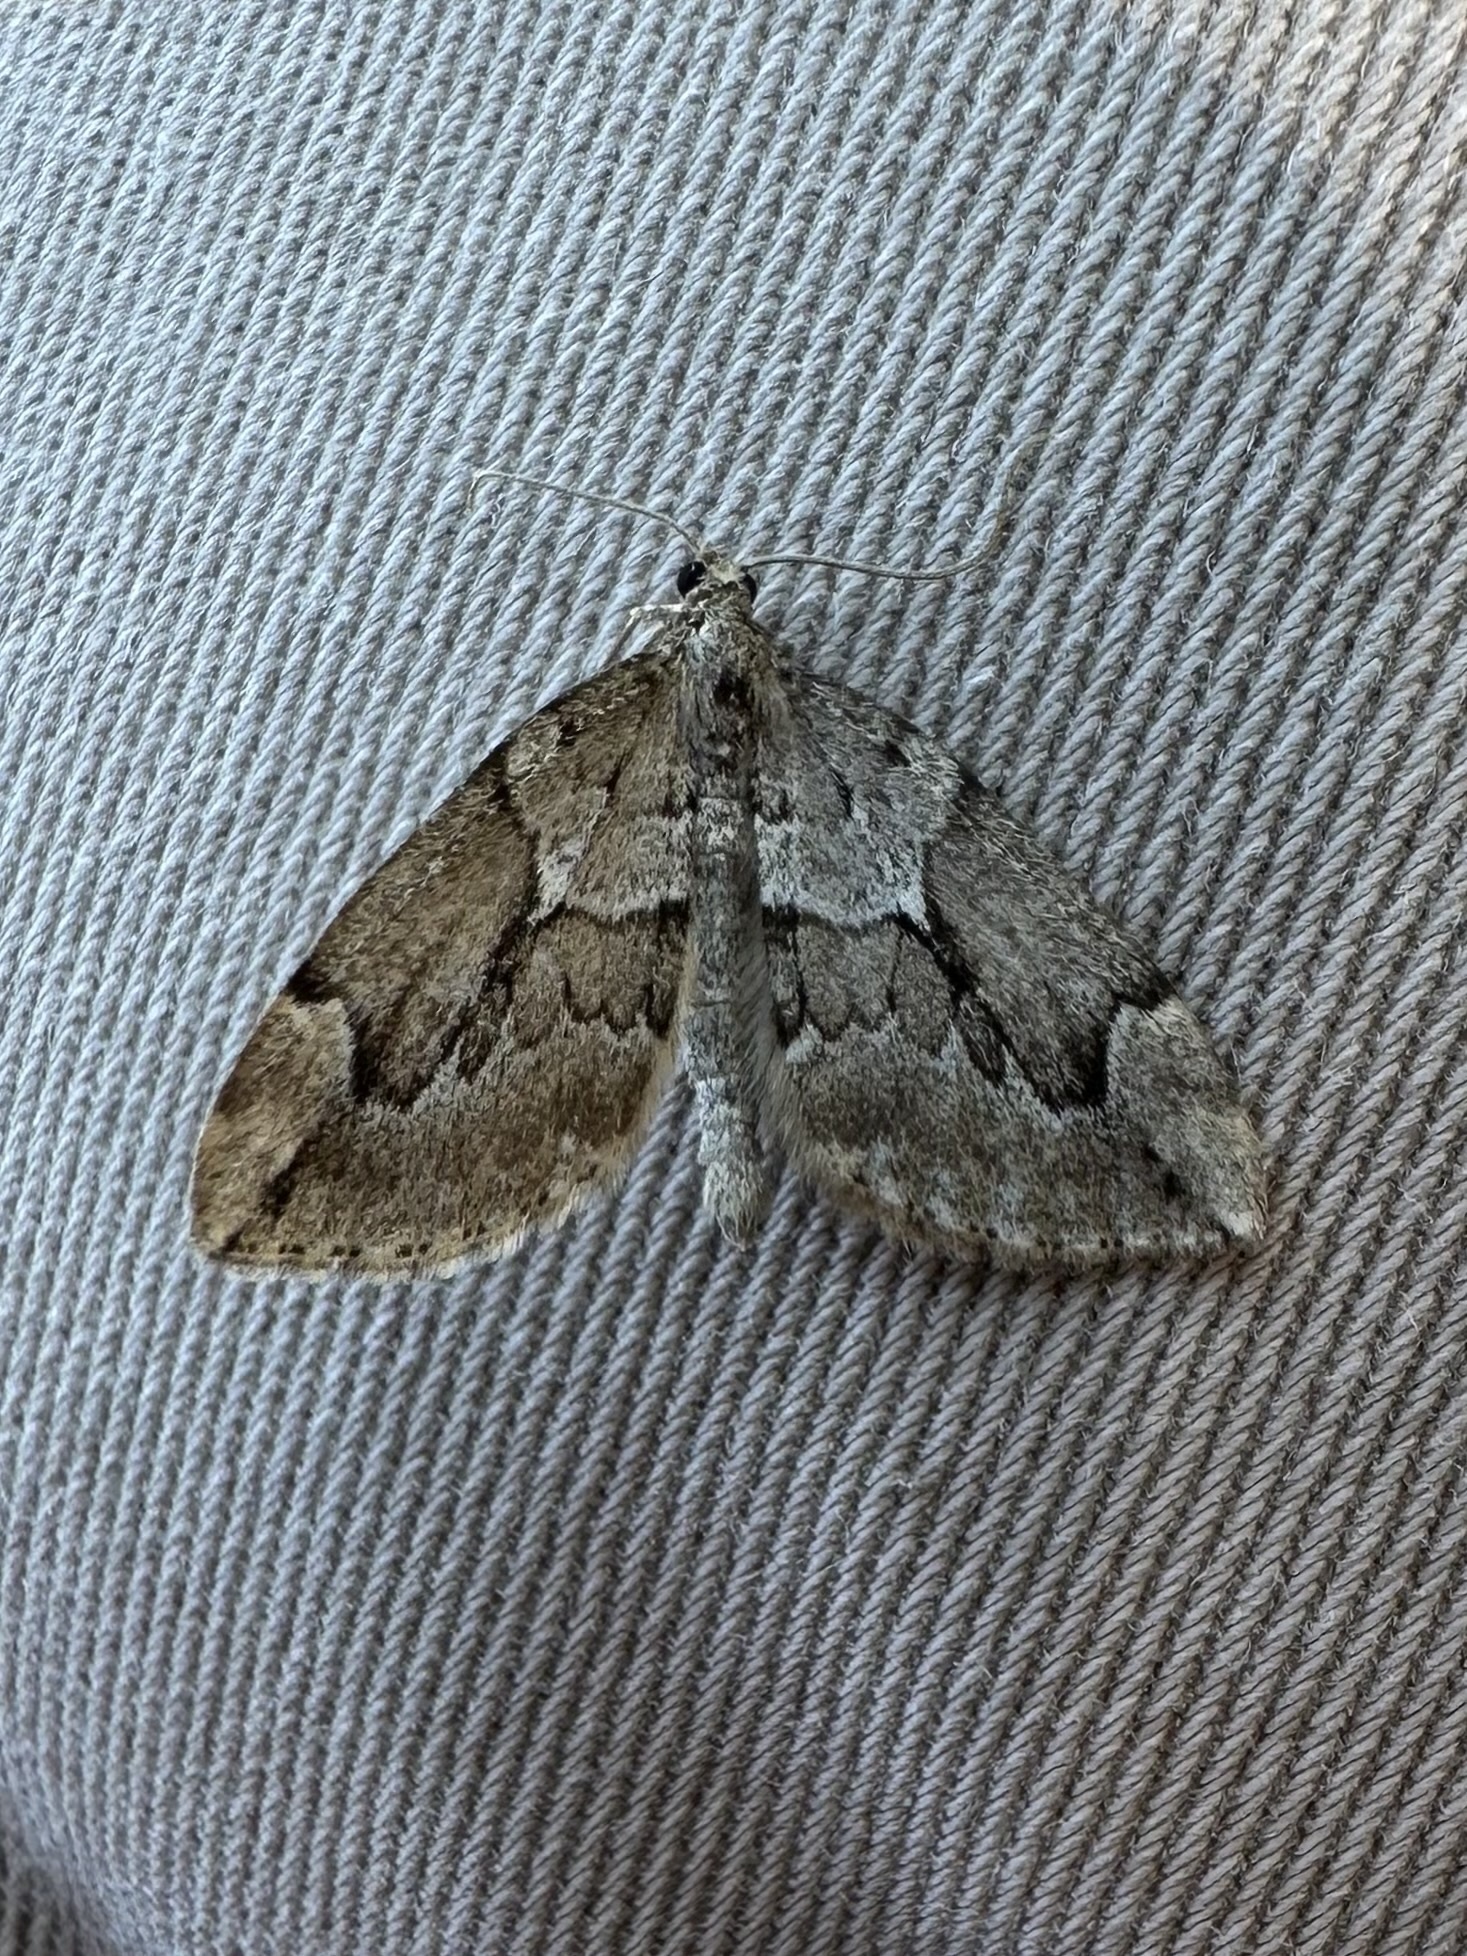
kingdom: Animalia
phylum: Arthropoda
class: Insecta
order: Lepidoptera
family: Geometridae
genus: Thera
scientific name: Thera juniperata
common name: Juniper carpet
